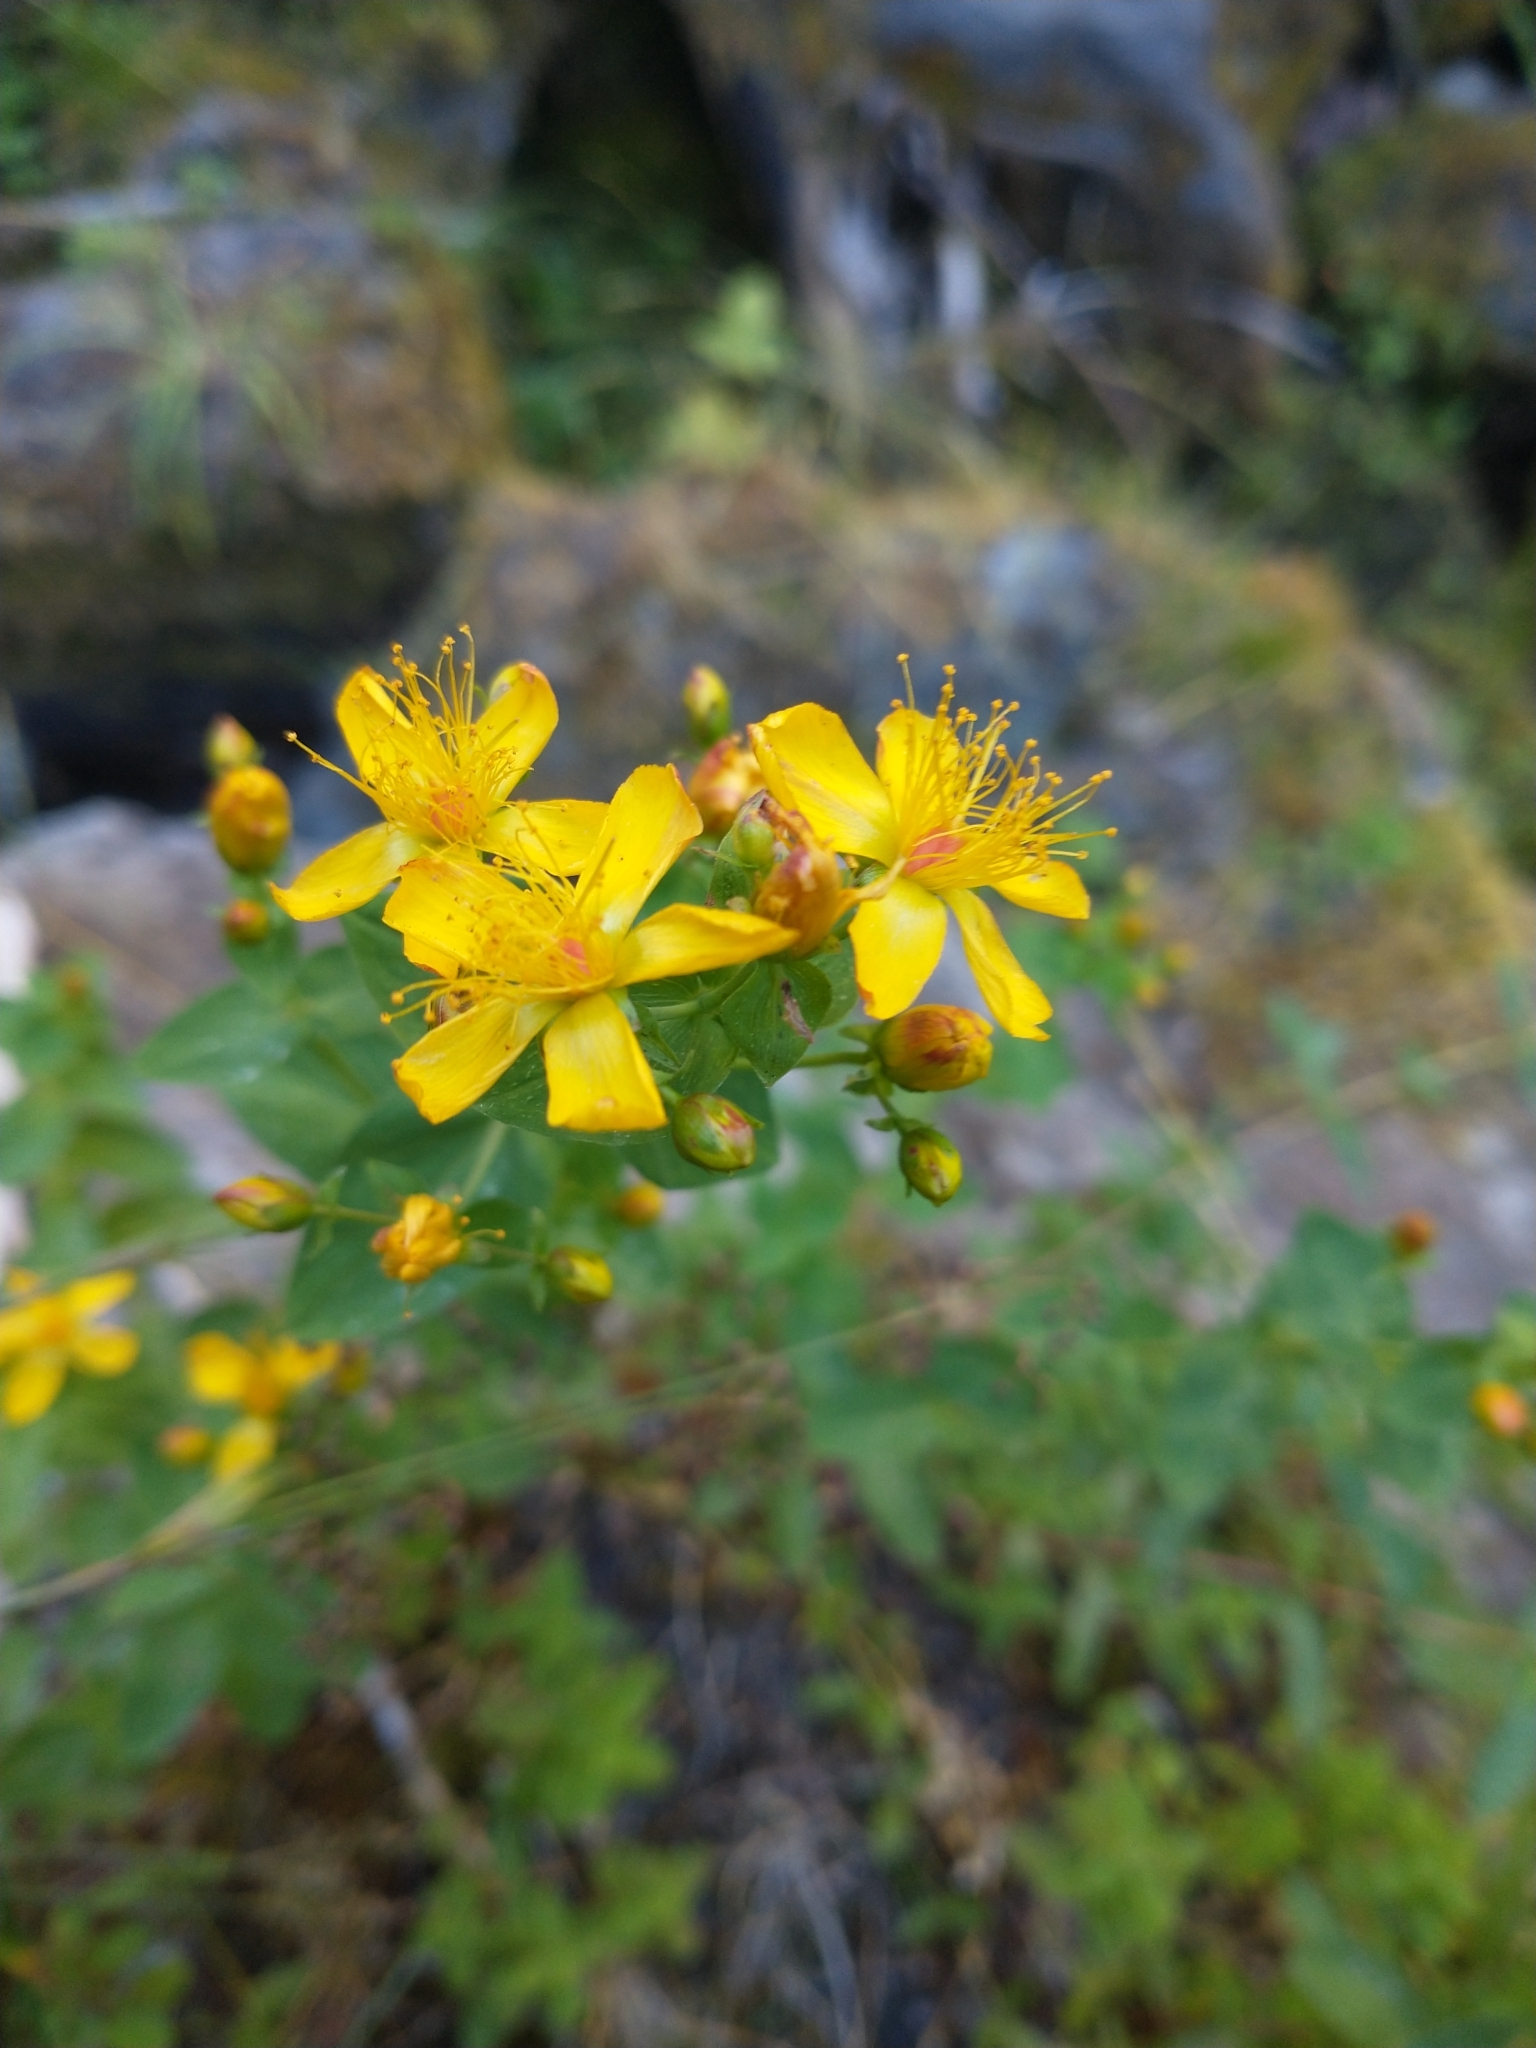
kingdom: Plantae
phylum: Tracheophyta
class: Magnoliopsida
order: Malpighiales
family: Hypericaceae
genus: Hypericum
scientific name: Hypericum scouleri
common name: Scouler's st. john's-wort
